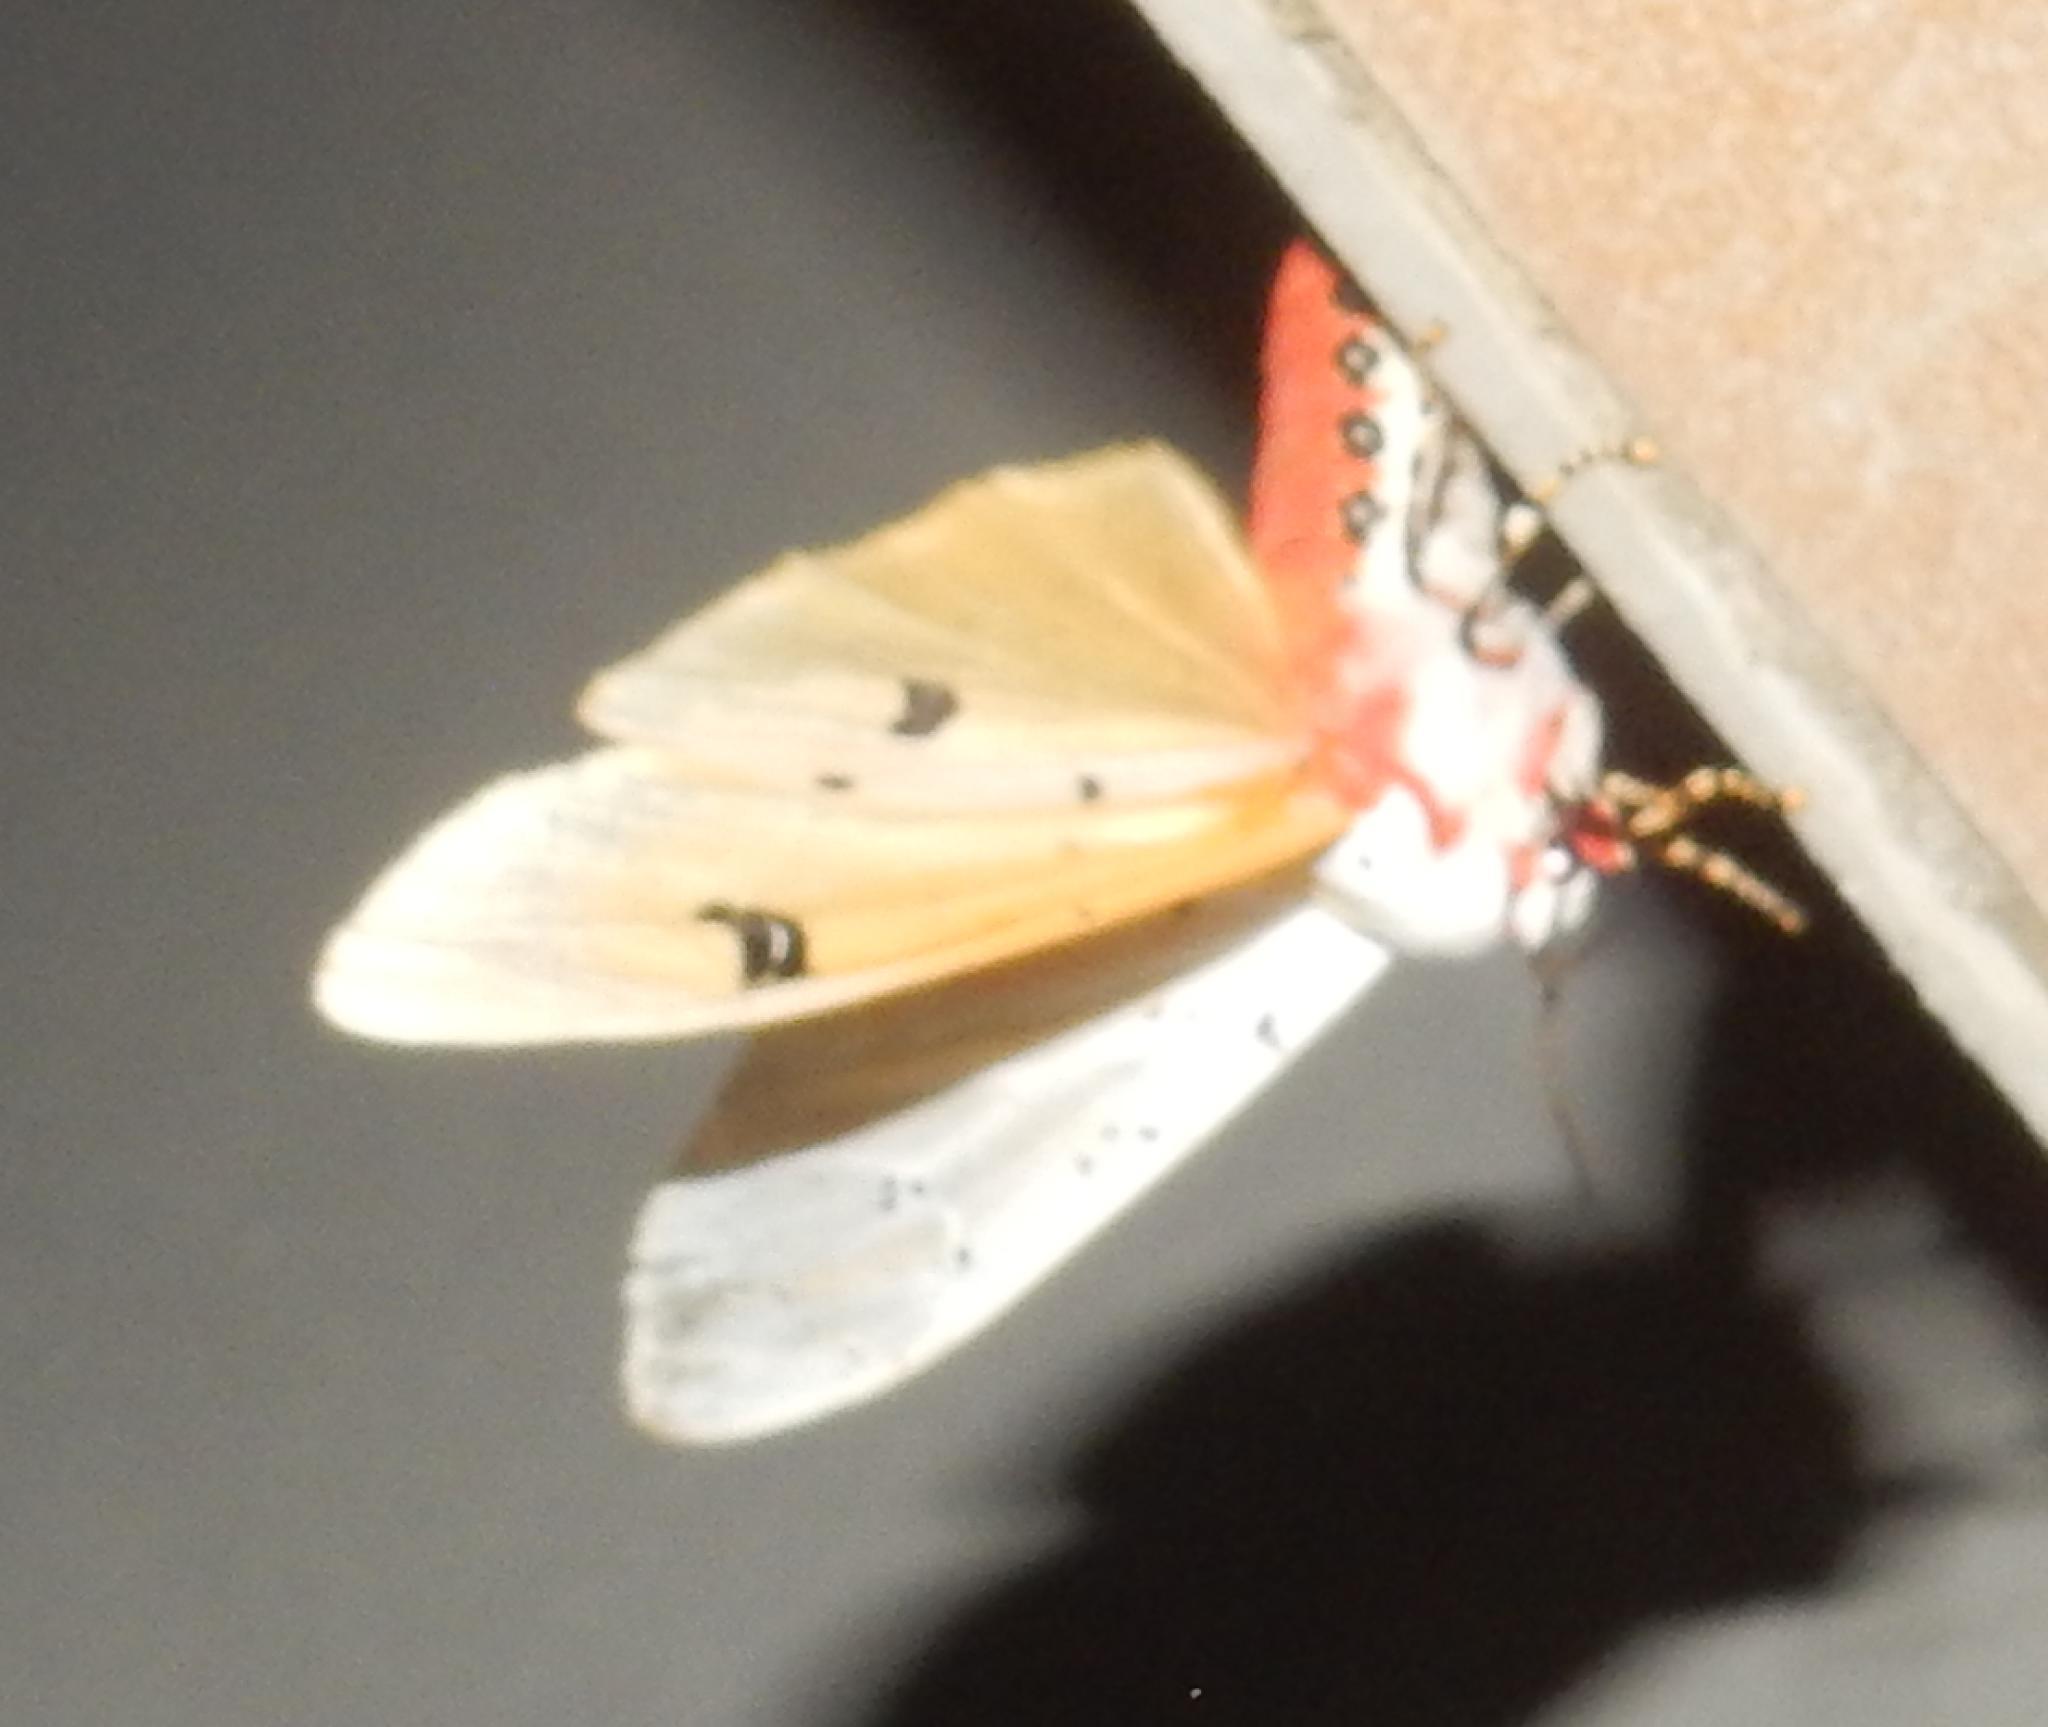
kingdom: Animalia
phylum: Arthropoda
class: Insecta
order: Lepidoptera
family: Erebidae
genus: Rhodogastria
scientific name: Rhodogastria similis
